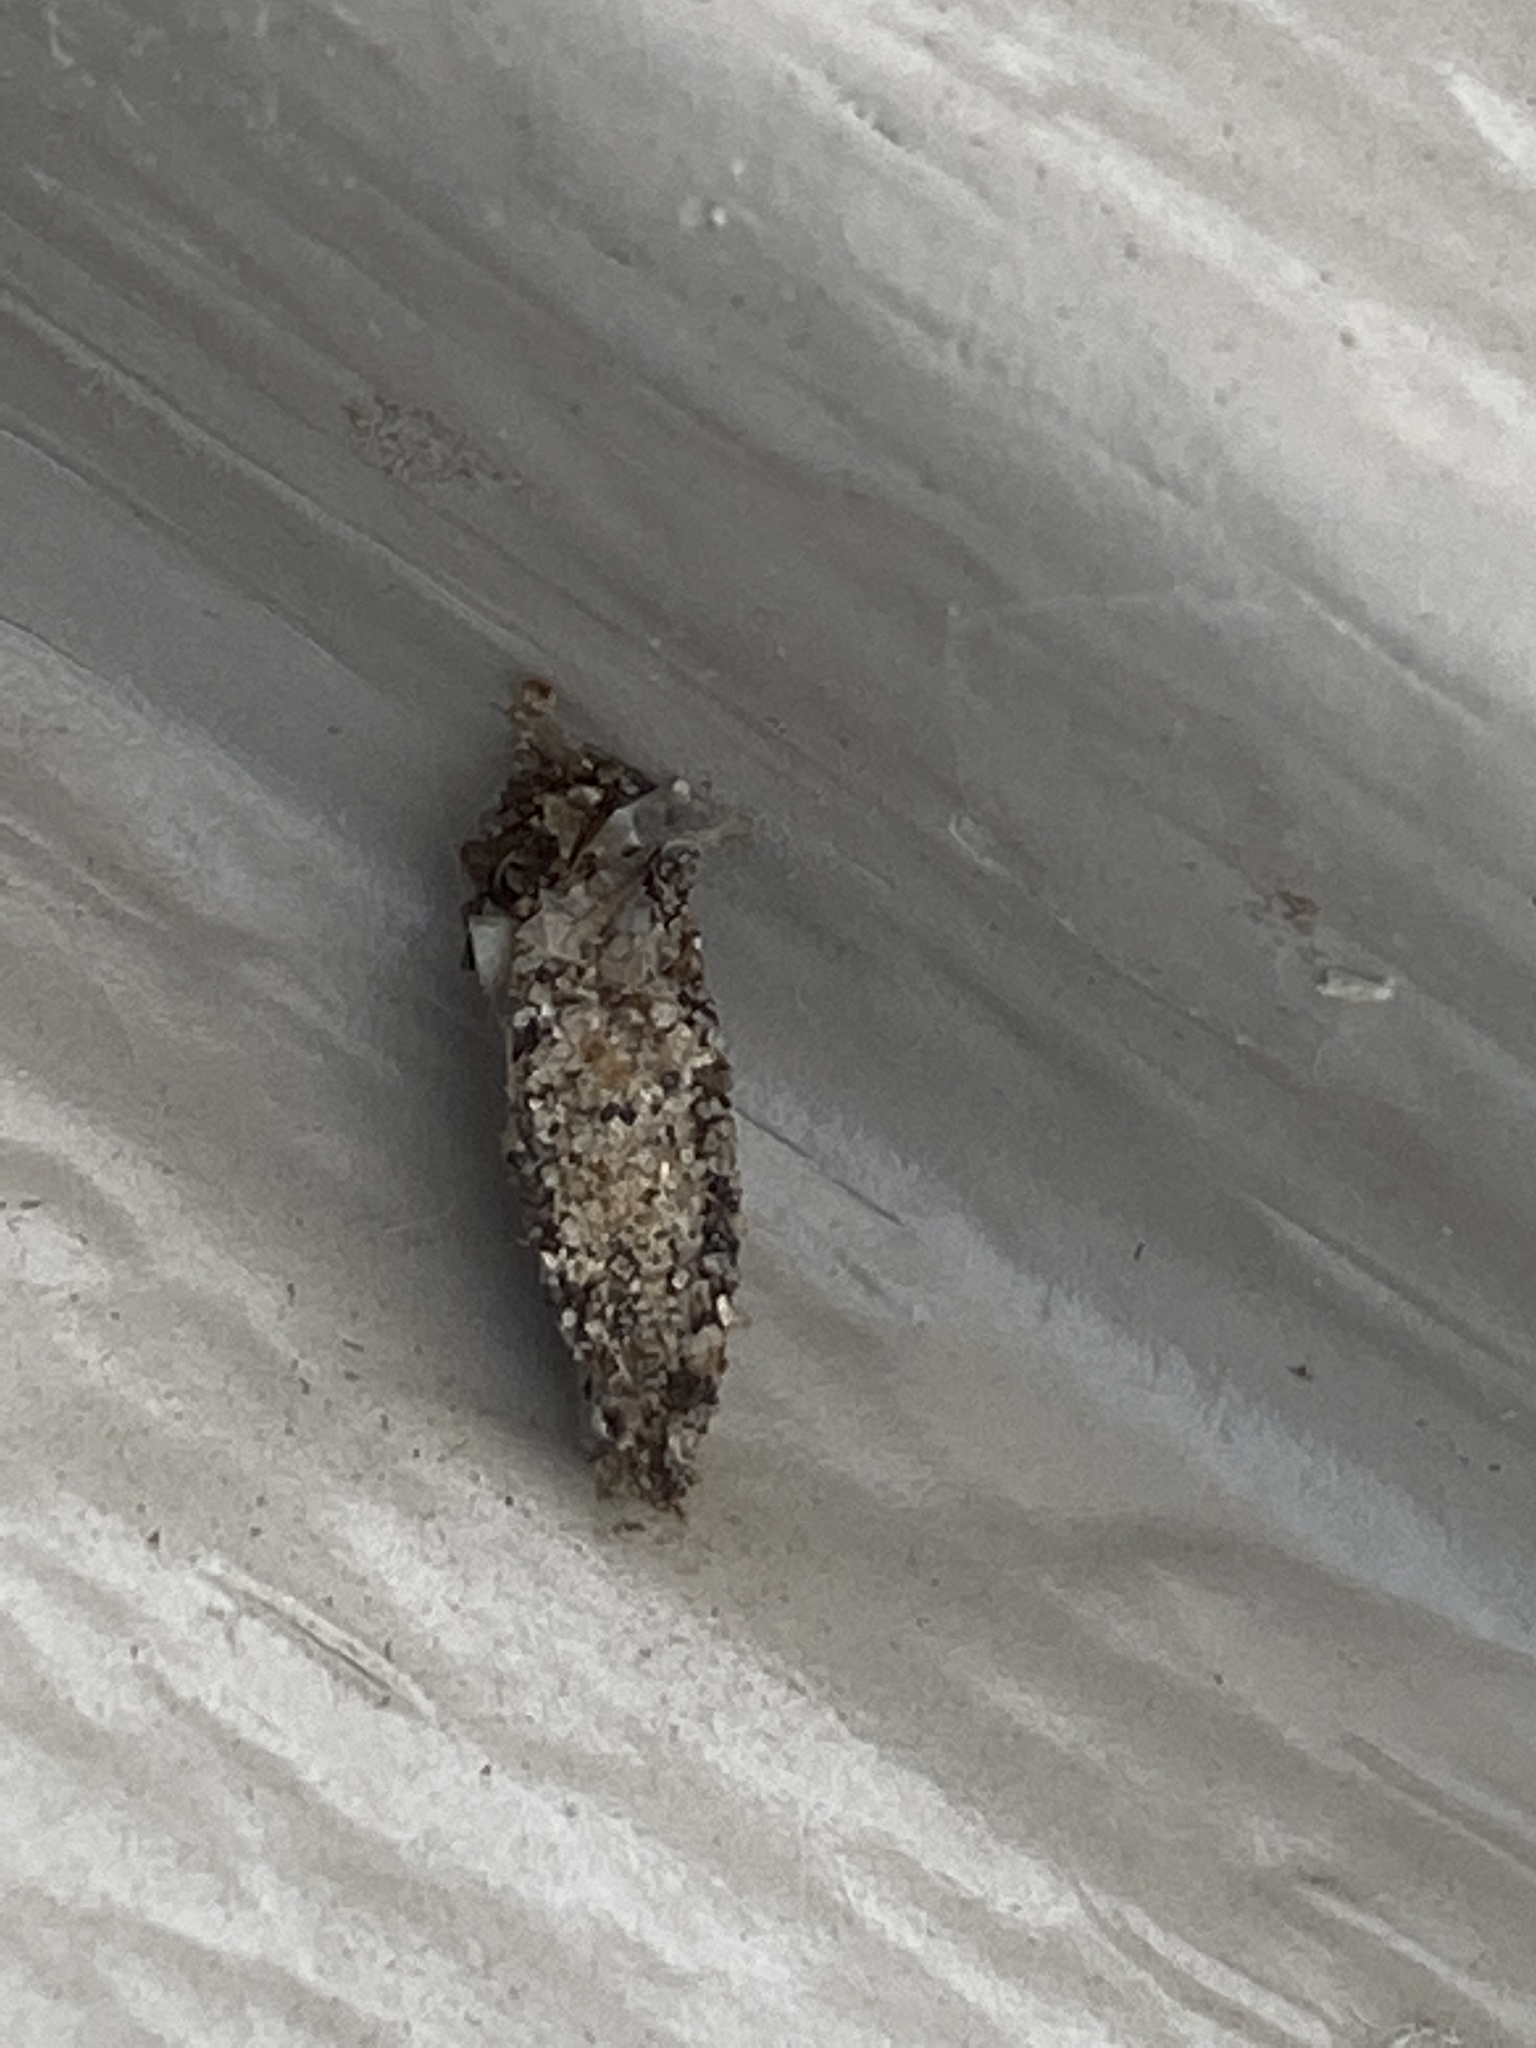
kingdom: Animalia
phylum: Arthropoda
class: Insecta
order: Lepidoptera
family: Psychidae
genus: Dahlica
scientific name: Dahlica walshella
